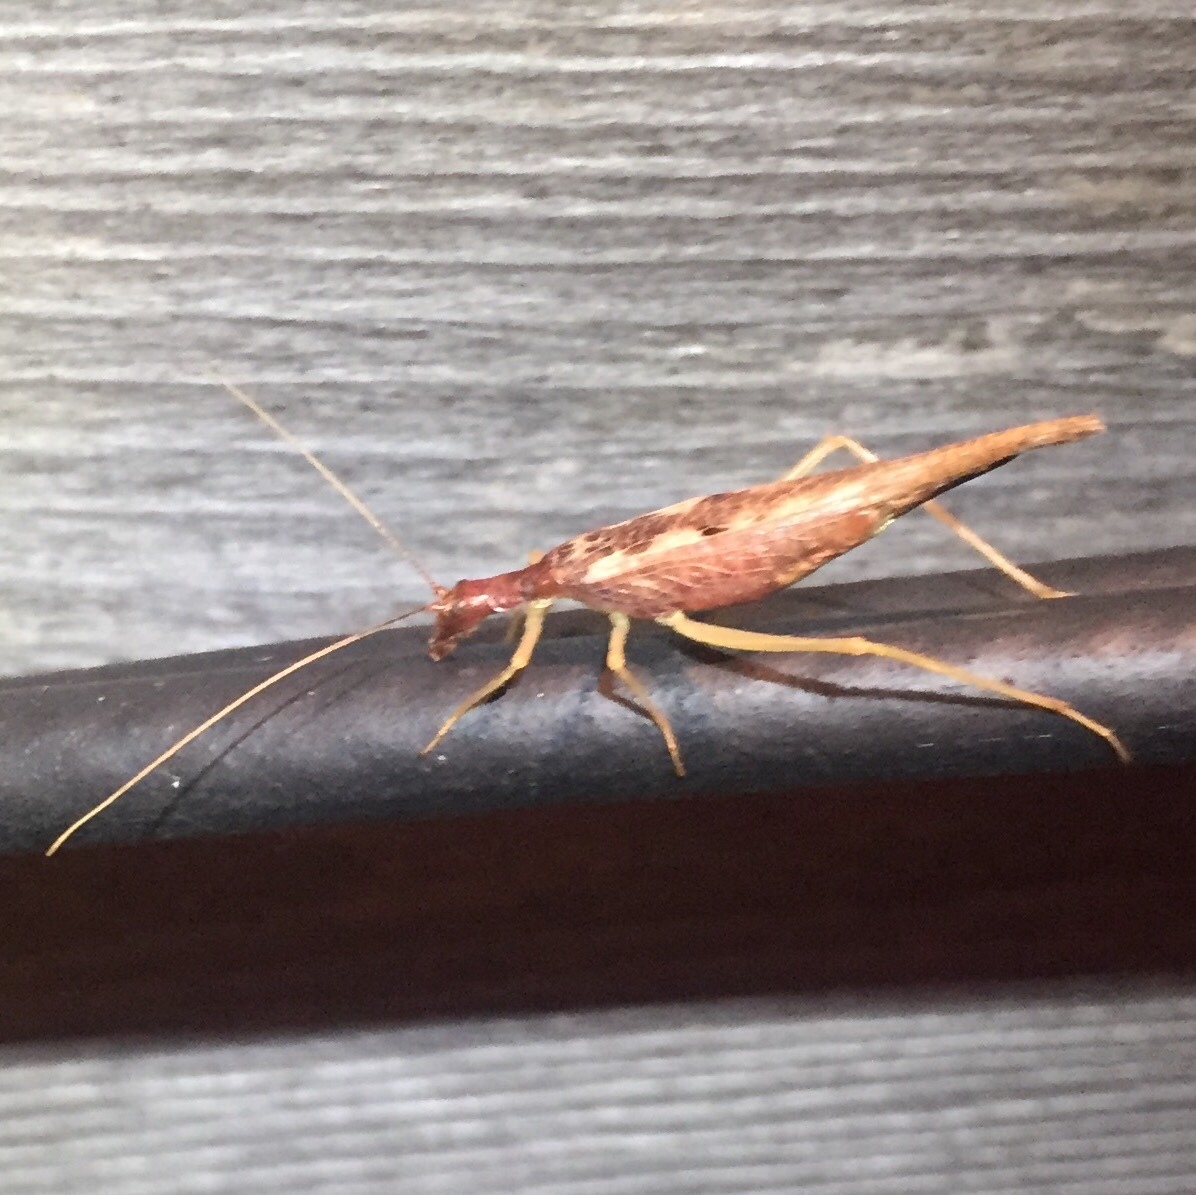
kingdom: Animalia
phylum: Arthropoda
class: Insecta
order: Orthoptera
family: Gryllidae
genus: Neoxabea
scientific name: Neoxabea bipunctata
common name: Two-spotted tree cricket
